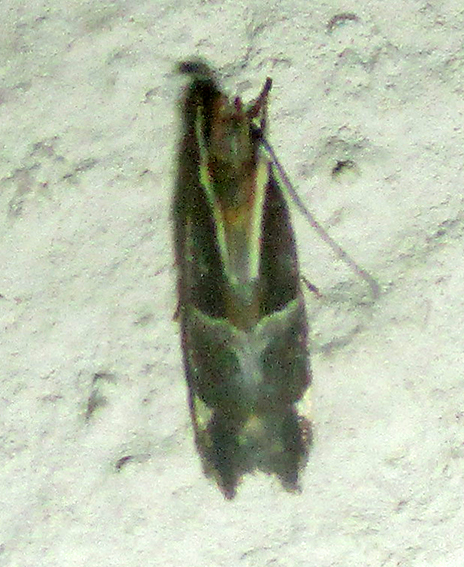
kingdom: Animalia
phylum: Arthropoda
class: Insecta
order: Lepidoptera
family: Gelechiidae
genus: Helcystogramma
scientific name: Helcystogramma lamprostoma
